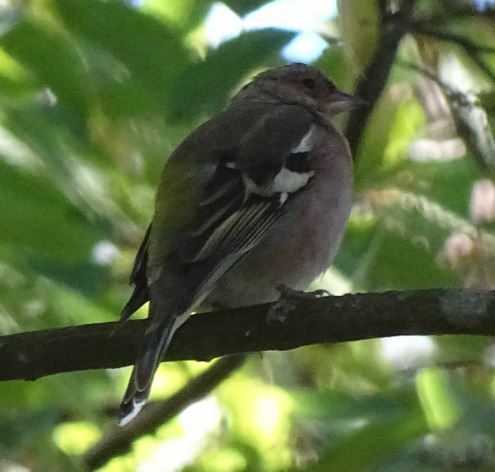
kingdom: Animalia
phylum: Chordata
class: Aves
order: Passeriformes
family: Fringillidae
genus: Fringilla
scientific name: Fringilla coelebs
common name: Common chaffinch
